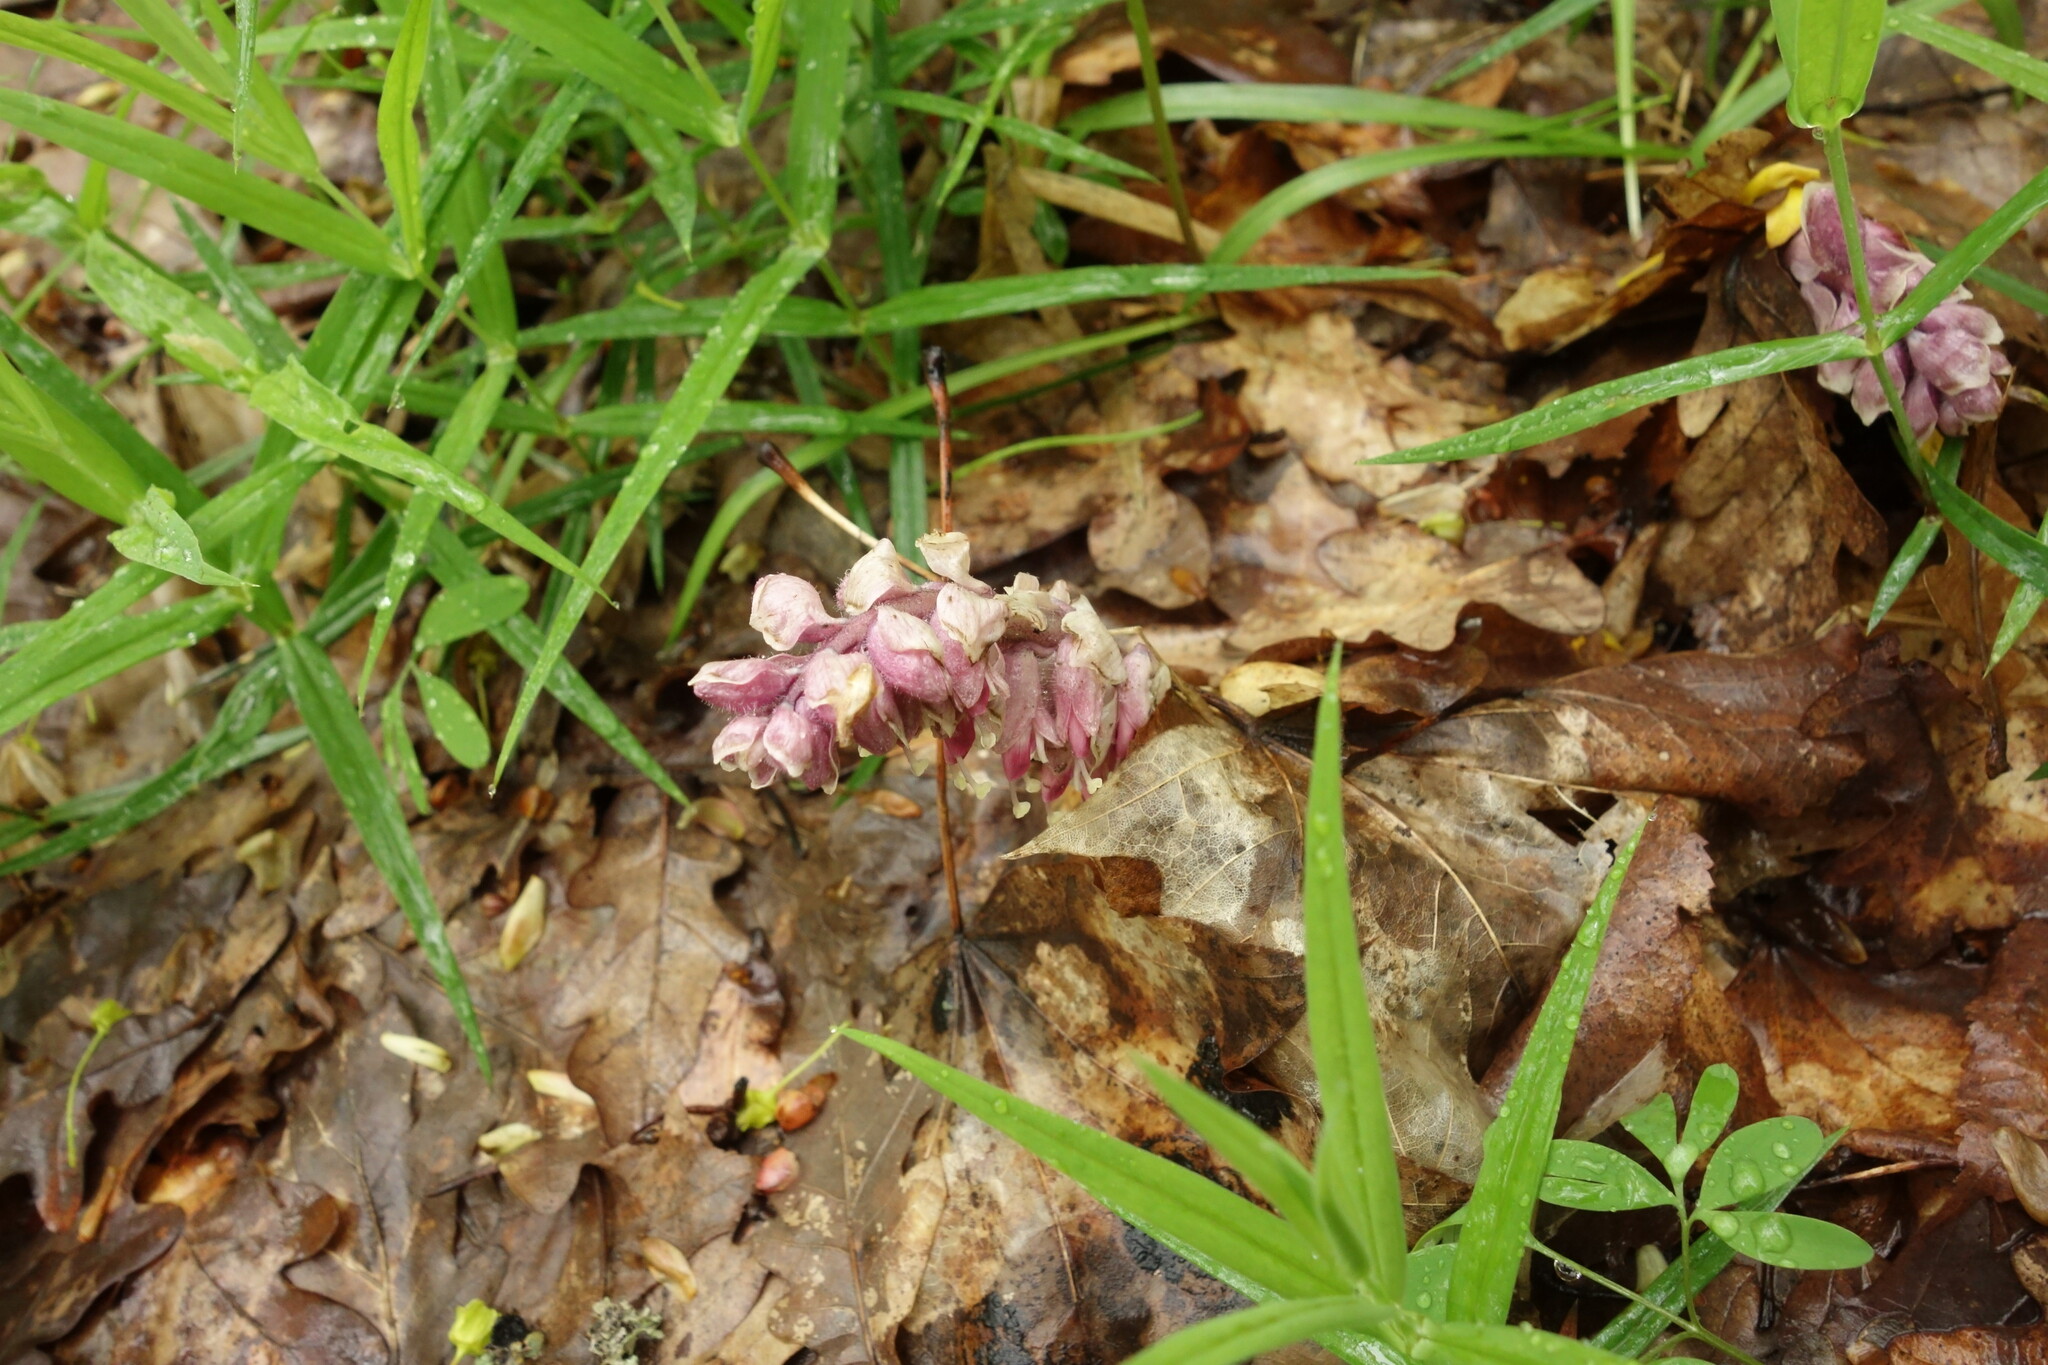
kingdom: Plantae
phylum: Tracheophyta
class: Magnoliopsida
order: Lamiales
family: Orobanchaceae
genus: Lathraea
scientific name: Lathraea squamaria
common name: Toothwort
